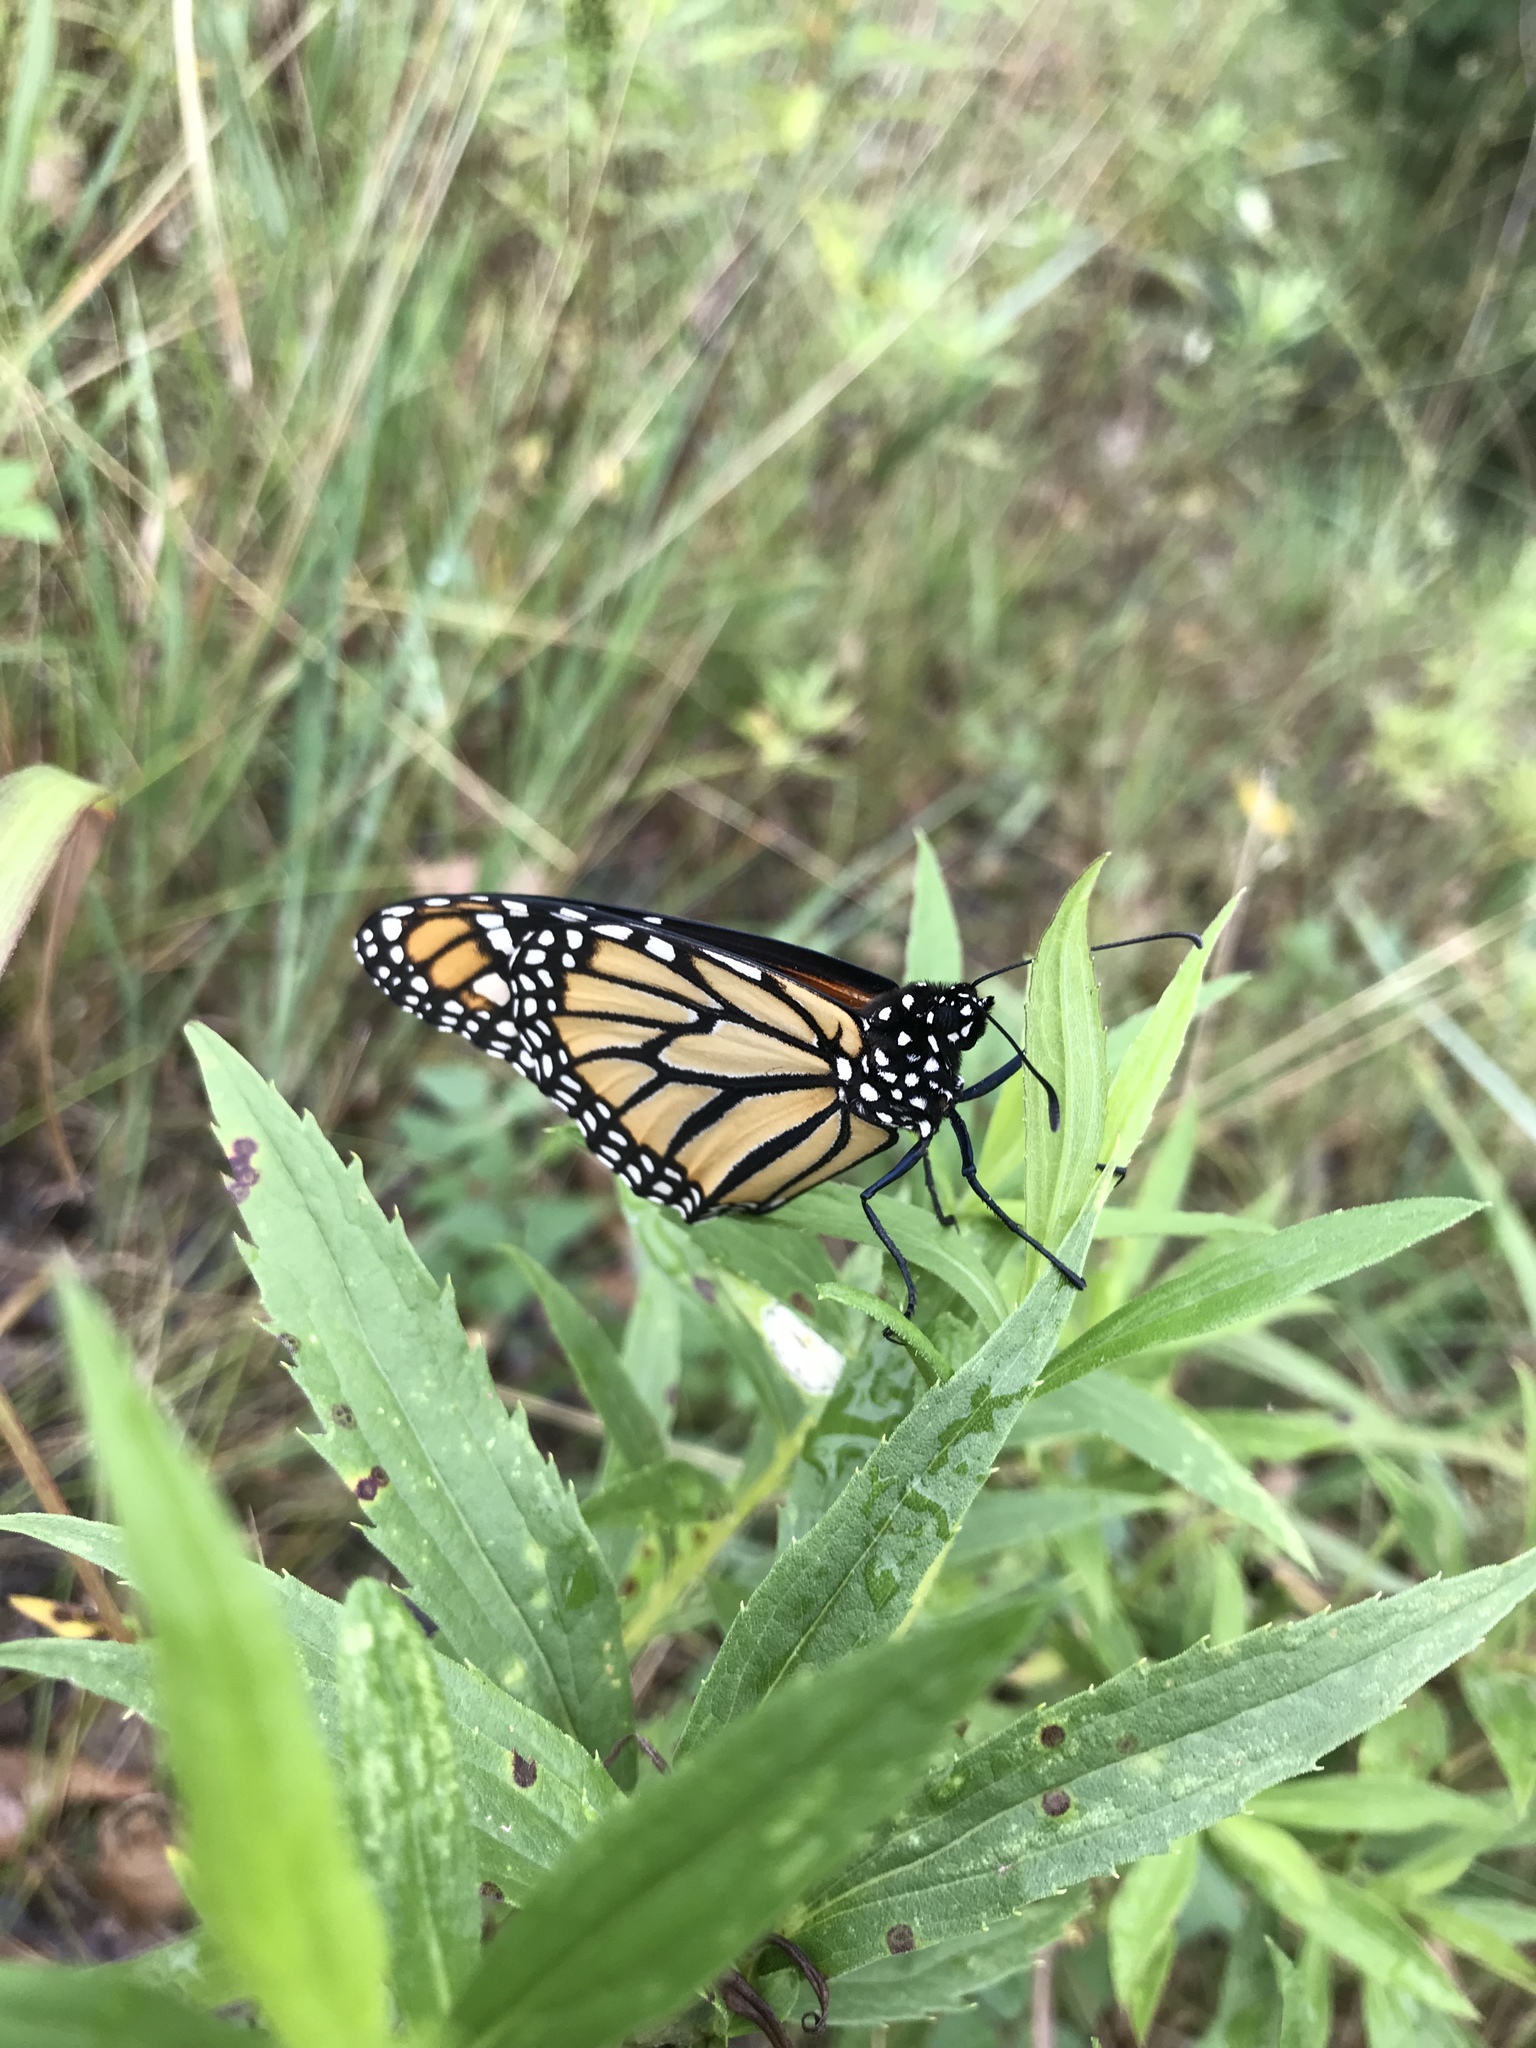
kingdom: Animalia
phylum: Arthropoda
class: Insecta
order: Lepidoptera
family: Nymphalidae
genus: Danaus
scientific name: Danaus plexippus
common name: Monarch
